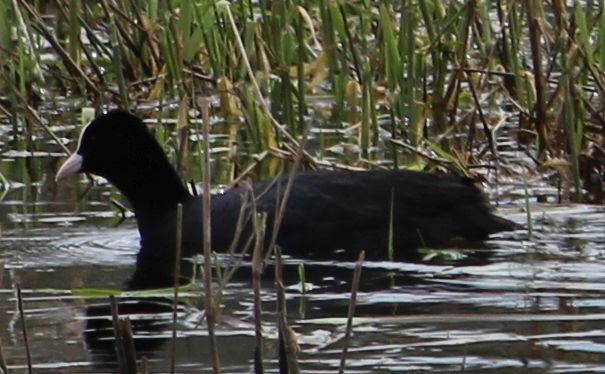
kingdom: Animalia
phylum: Chordata
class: Aves
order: Gruiformes
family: Rallidae
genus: Fulica
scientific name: Fulica atra
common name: Eurasian coot
